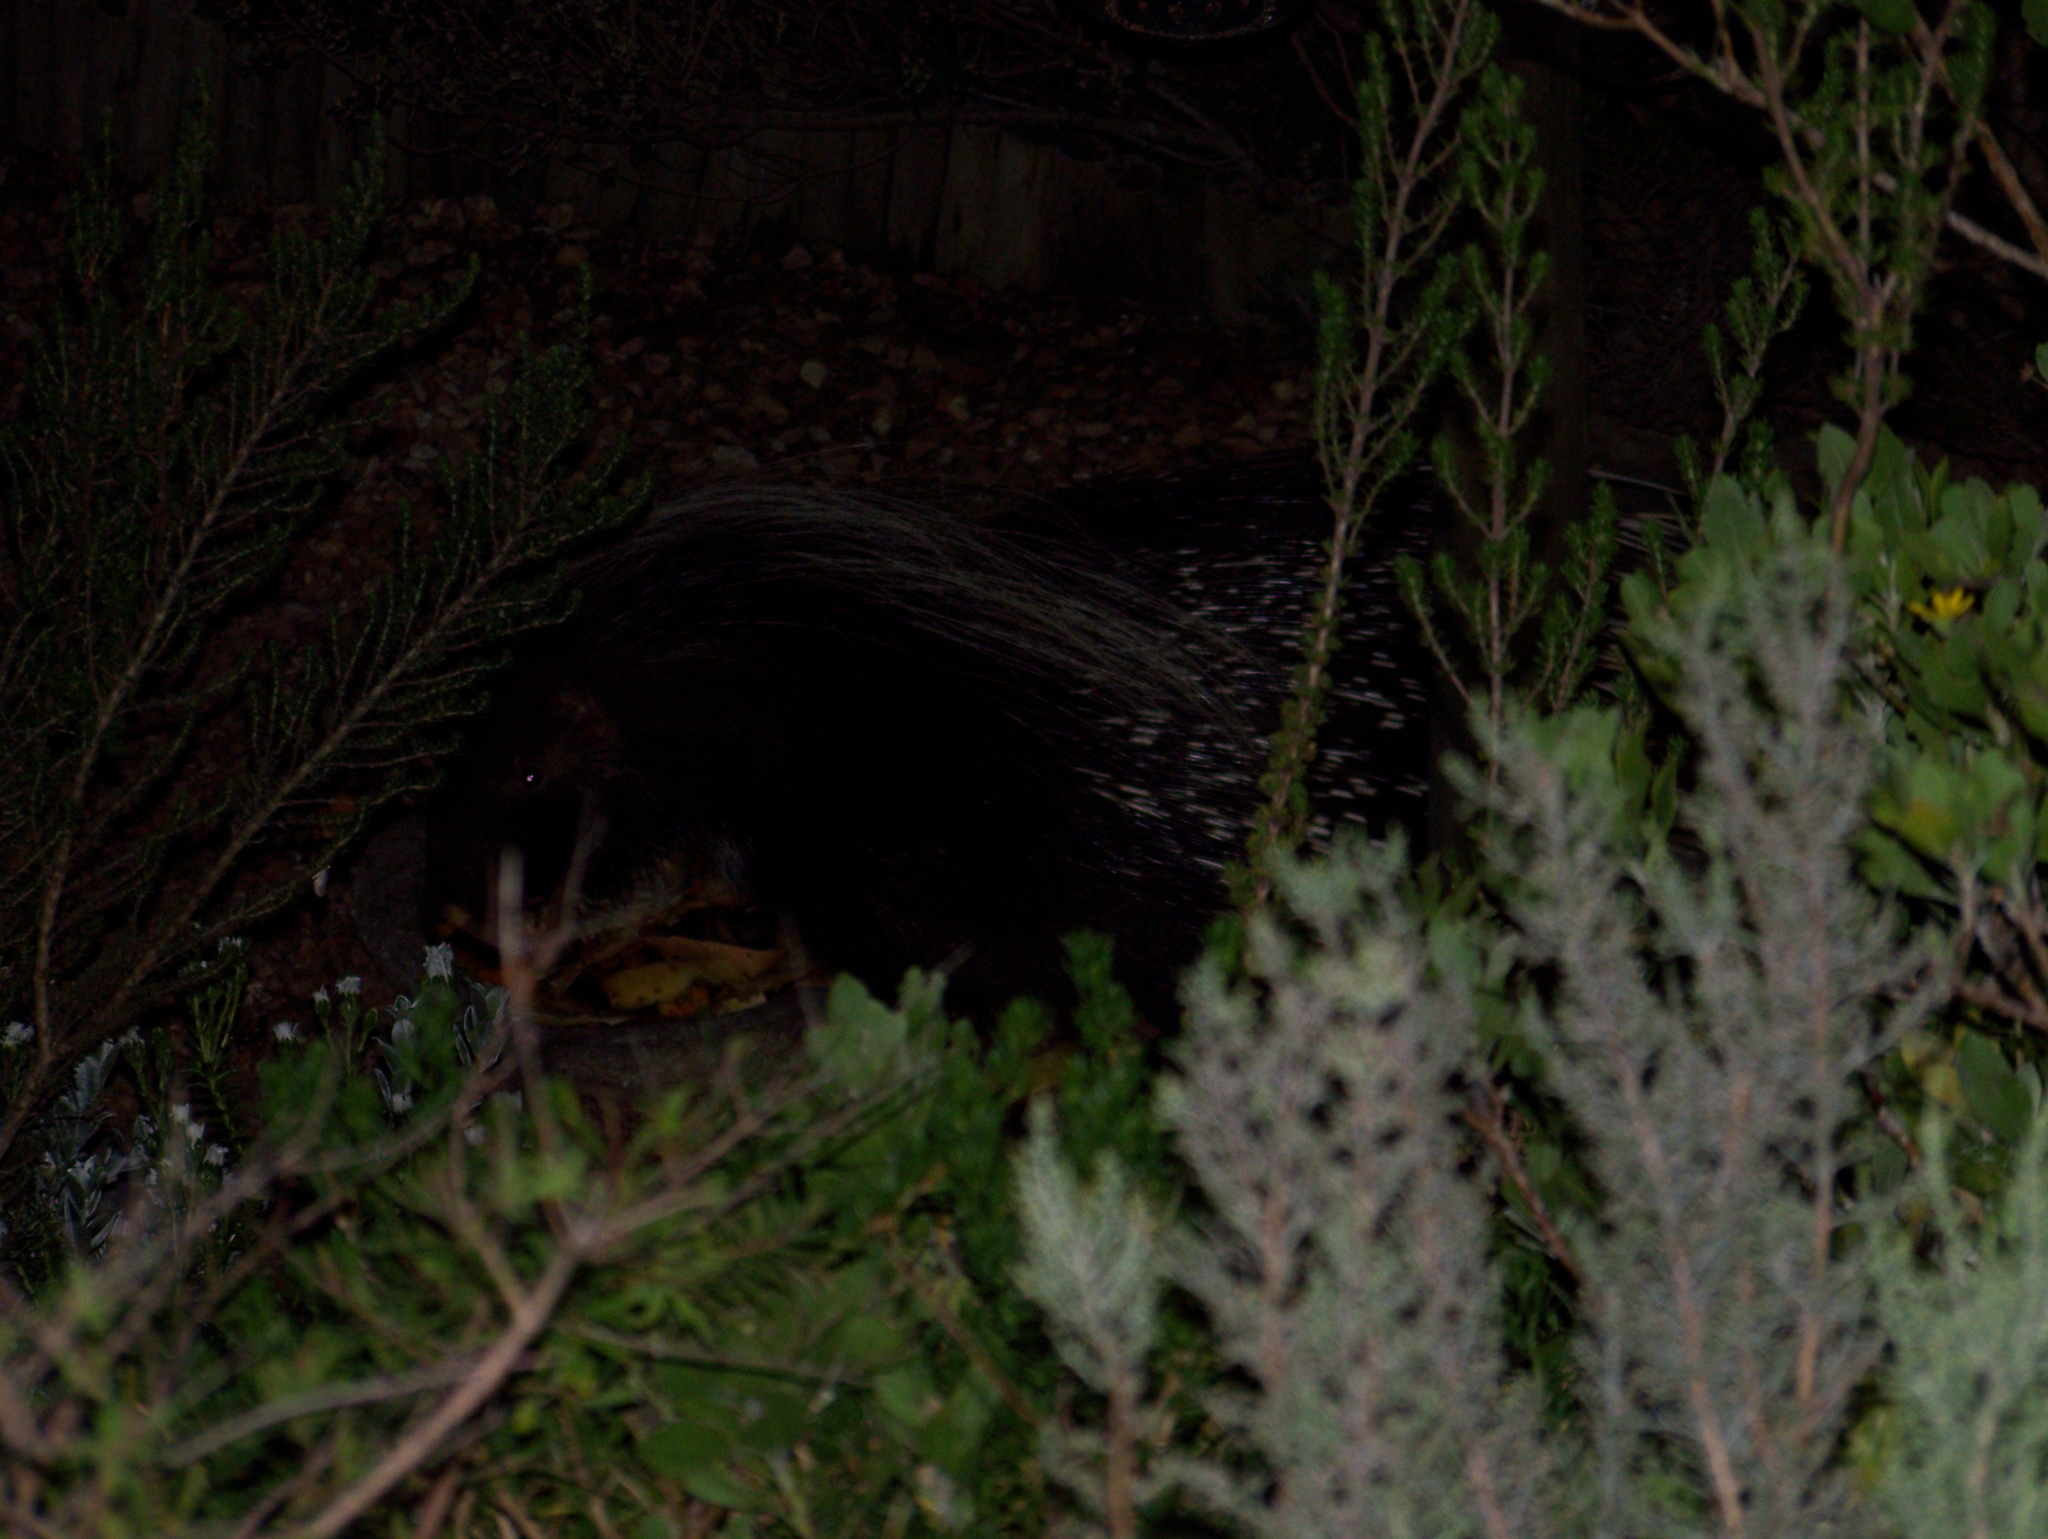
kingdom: Animalia
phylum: Chordata
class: Mammalia
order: Rodentia
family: Hystricidae
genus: Hystrix
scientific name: Hystrix africaeaustralis
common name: Cape porcupine
